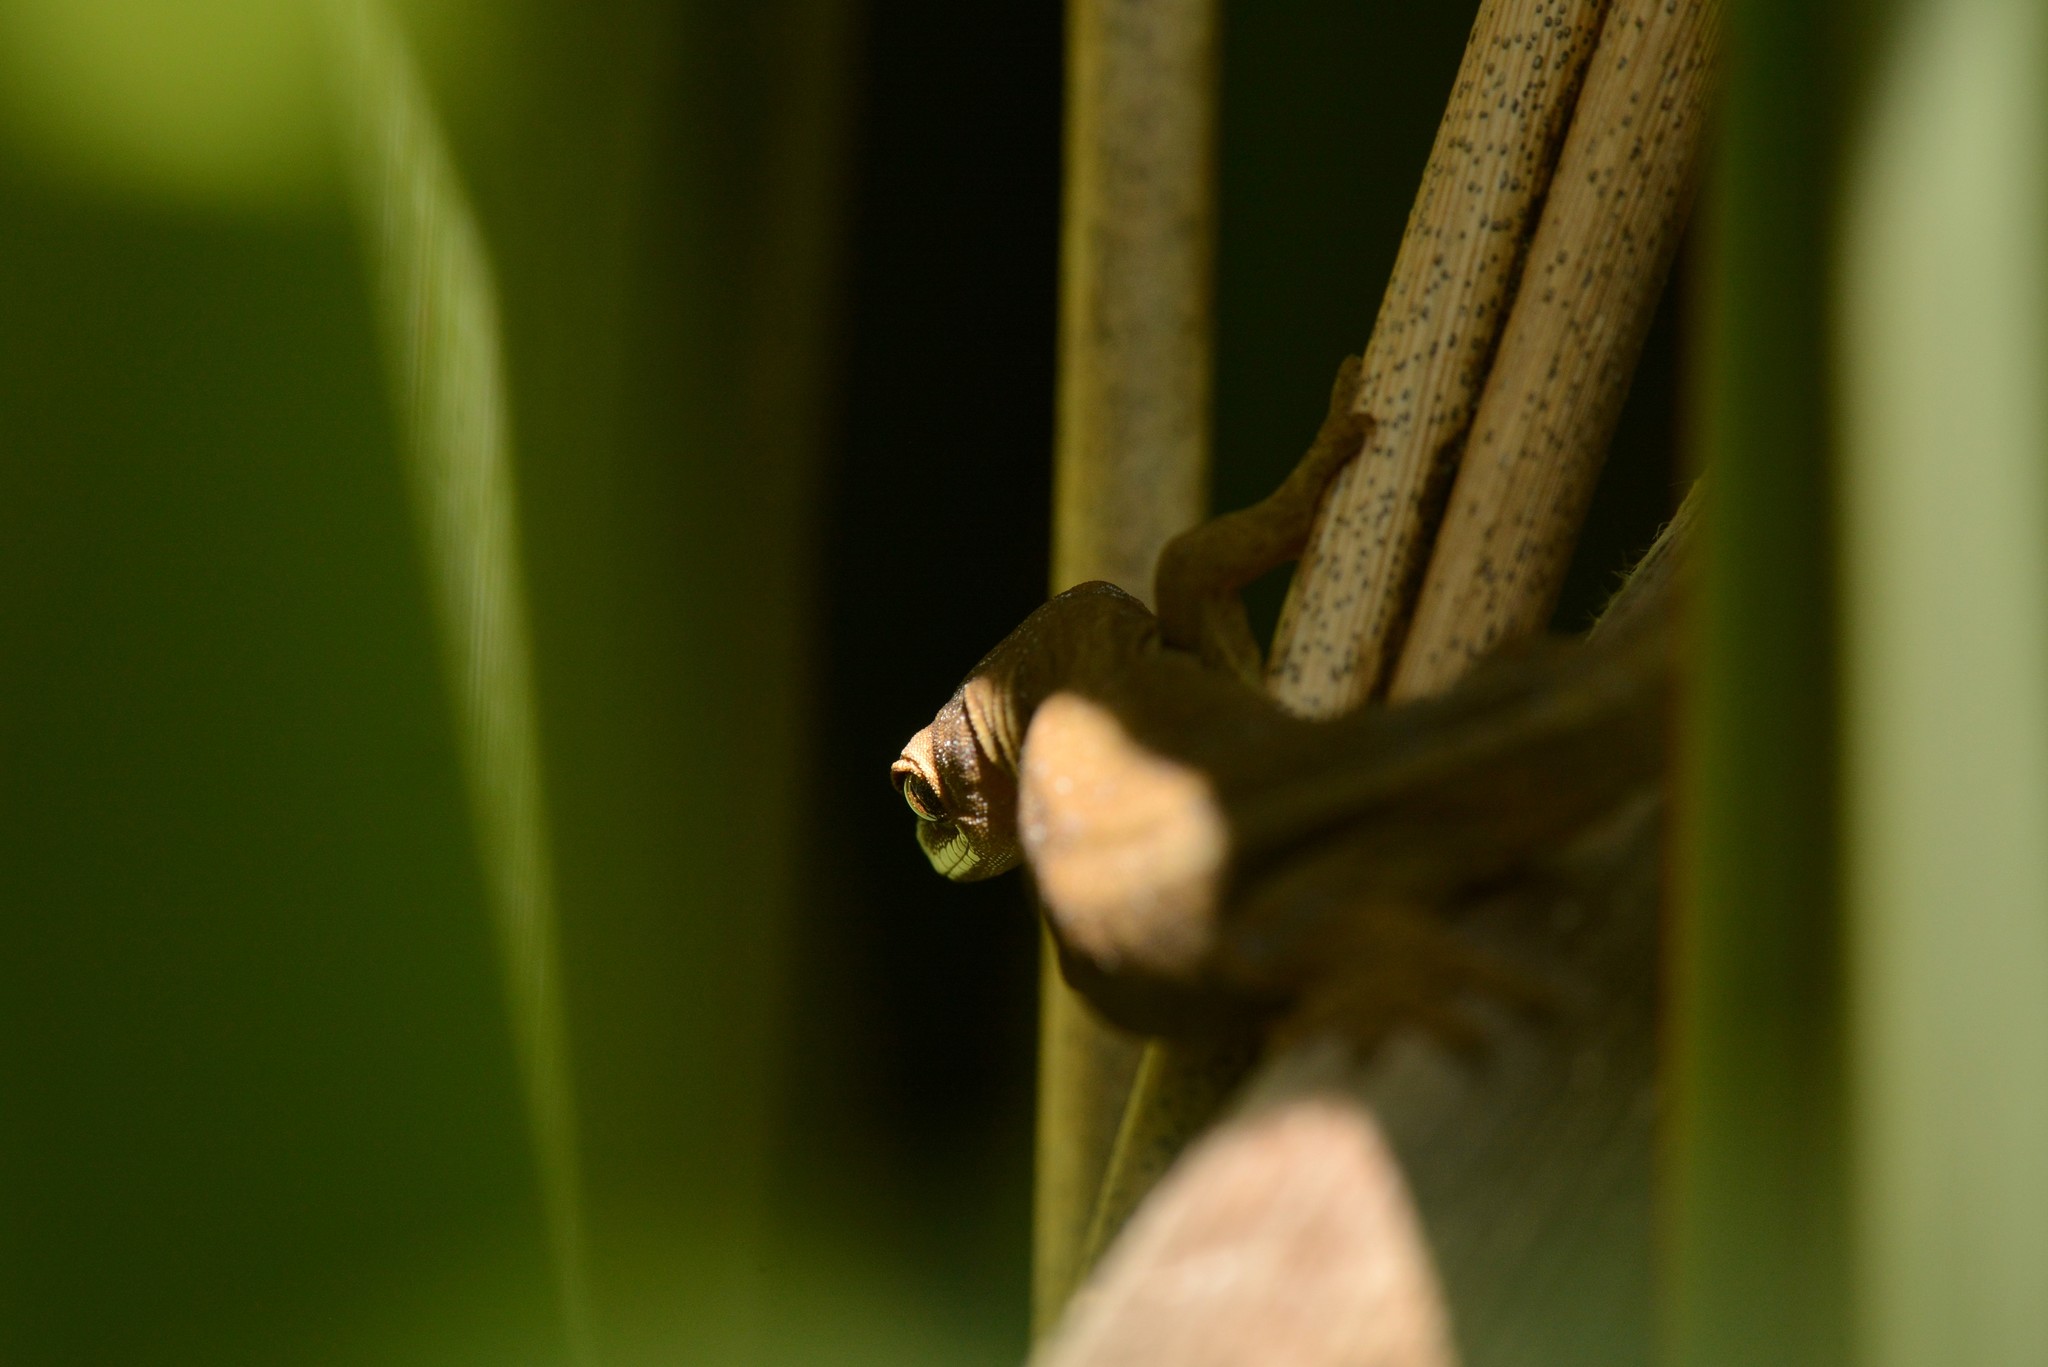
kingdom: Animalia
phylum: Chordata
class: Squamata
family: Diplodactylidae
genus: Woodworthia
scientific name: Woodworthia chrysosiretica
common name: Gold-striped gecko
